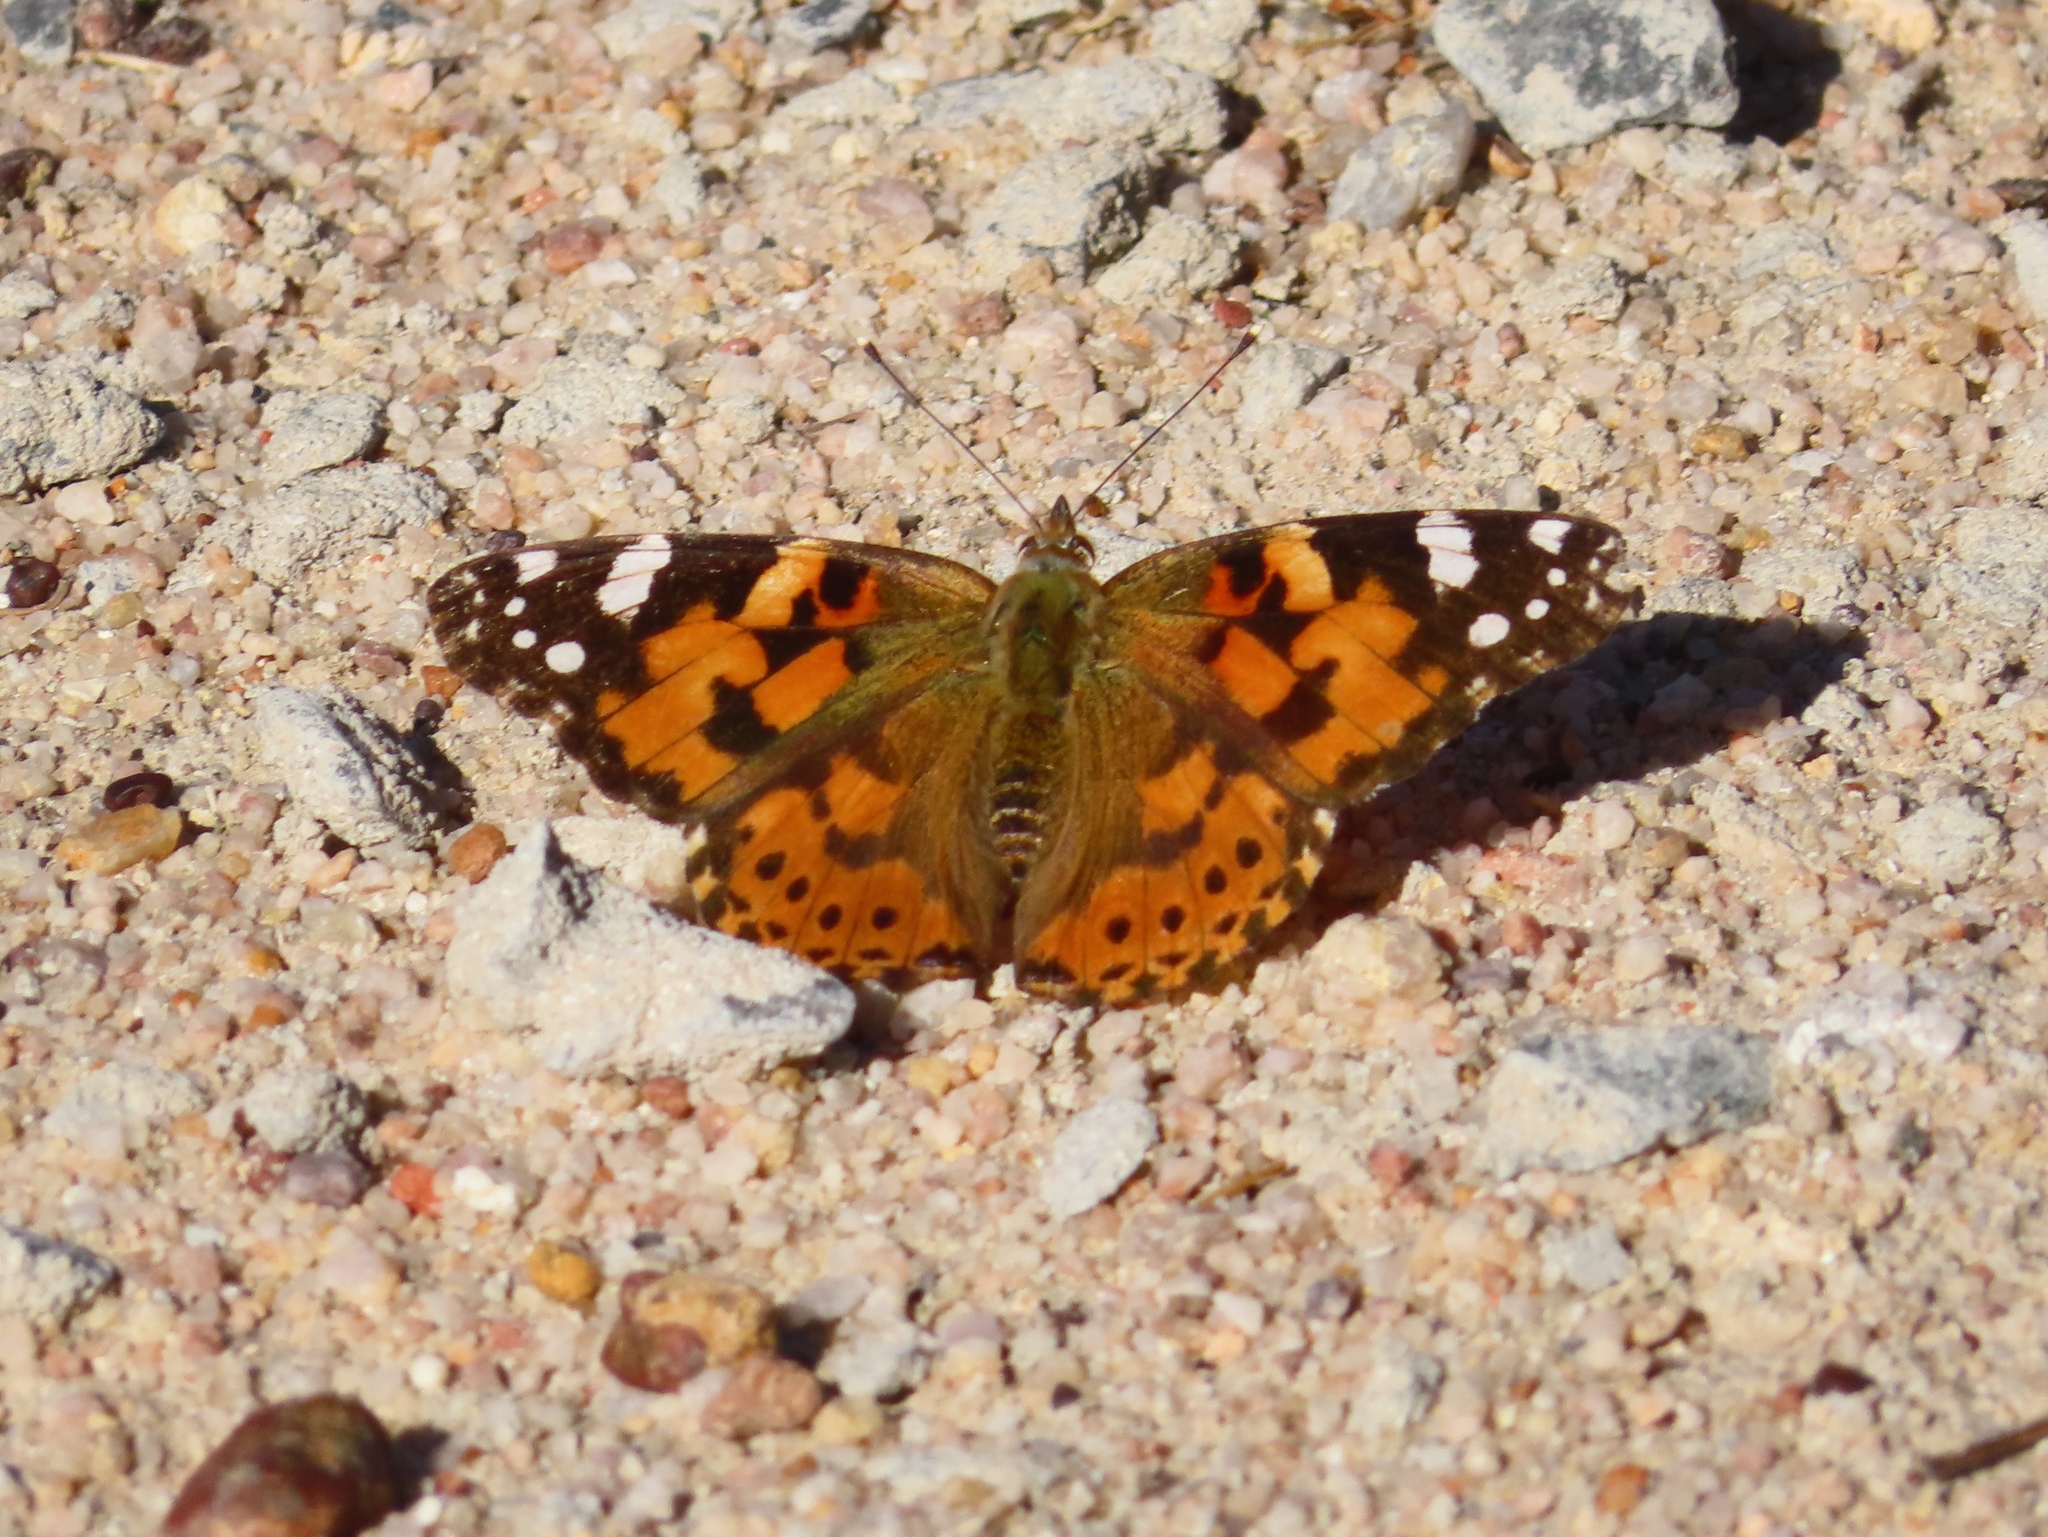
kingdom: Animalia
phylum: Arthropoda
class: Insecta
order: Lepidoptera
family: Nymphalidae
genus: Vanessa
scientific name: Vanessa cardui
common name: Painted lady
